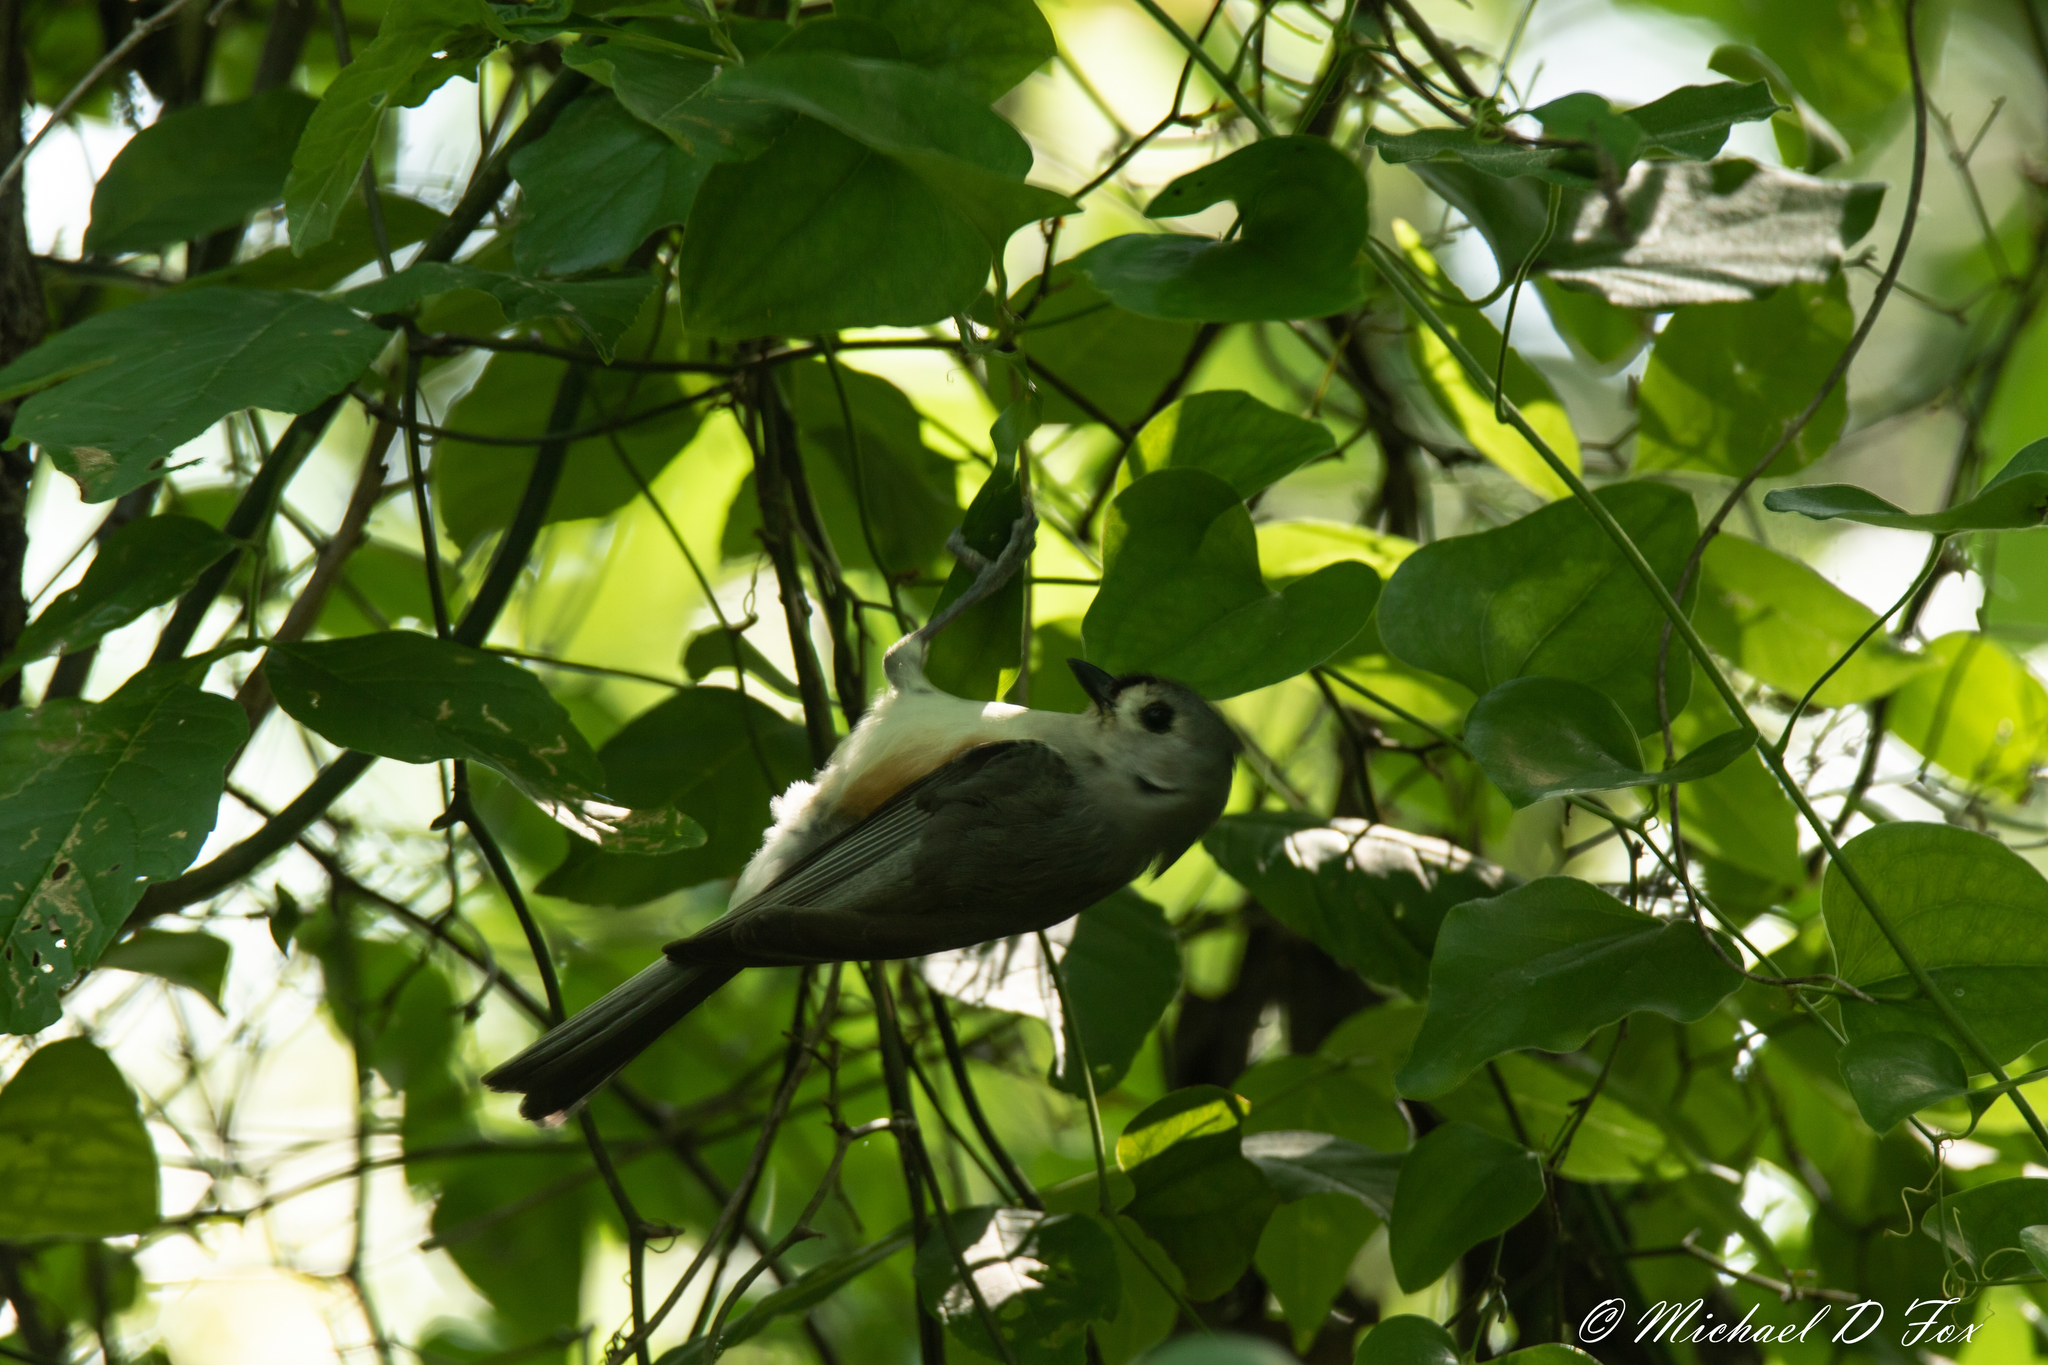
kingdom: Animalia
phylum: Chordata
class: Aves
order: Passeriformes
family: Paridae
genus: Baeolophus
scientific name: Baeolophus bicolor
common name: Tufted titmouse
